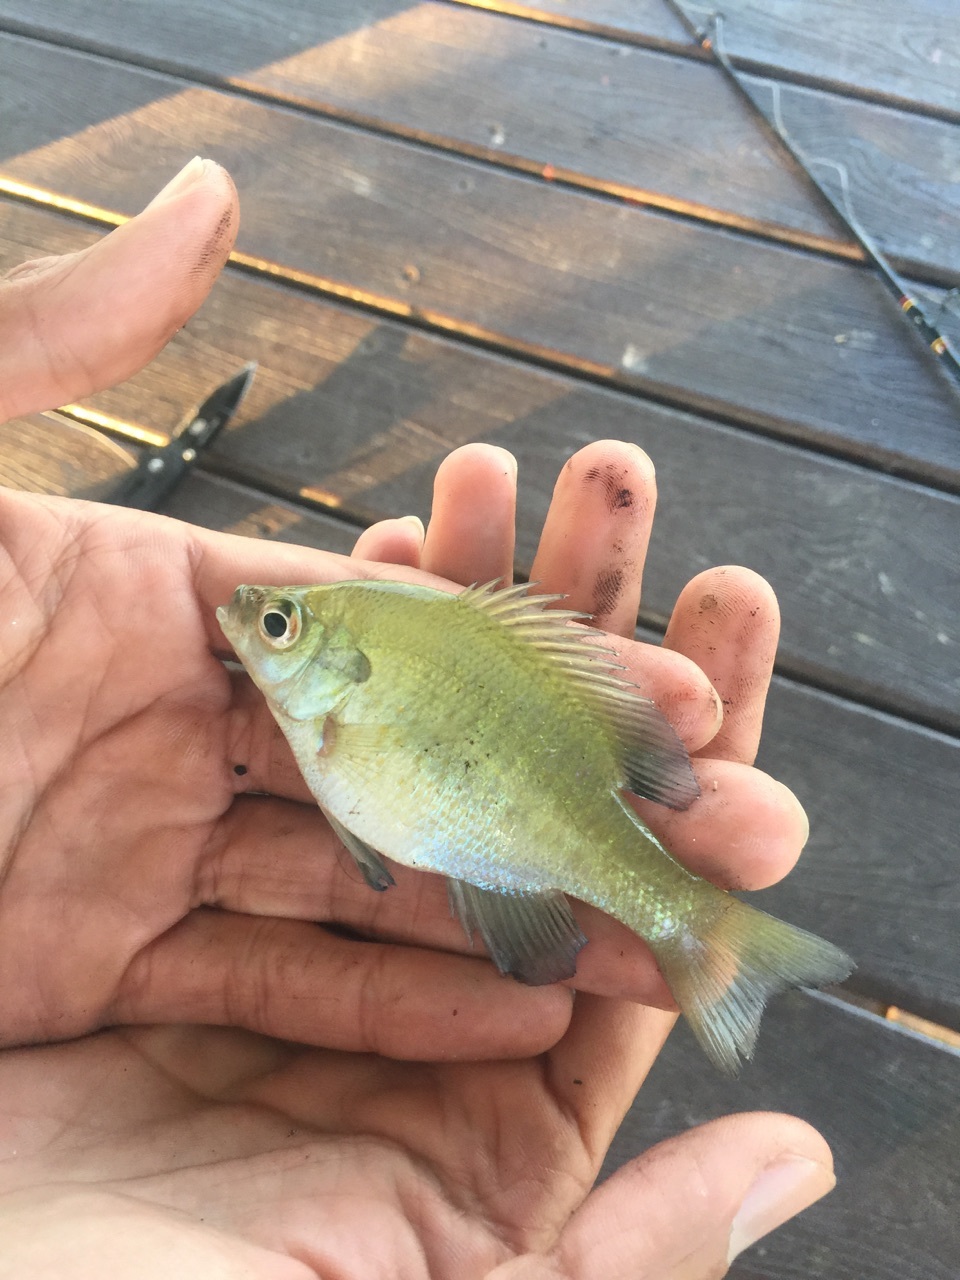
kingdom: Animalia
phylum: Chordata
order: Perciformes
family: Centrarchidae
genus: Lepomis
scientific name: Lepomis macrochirus
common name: Bluegill
